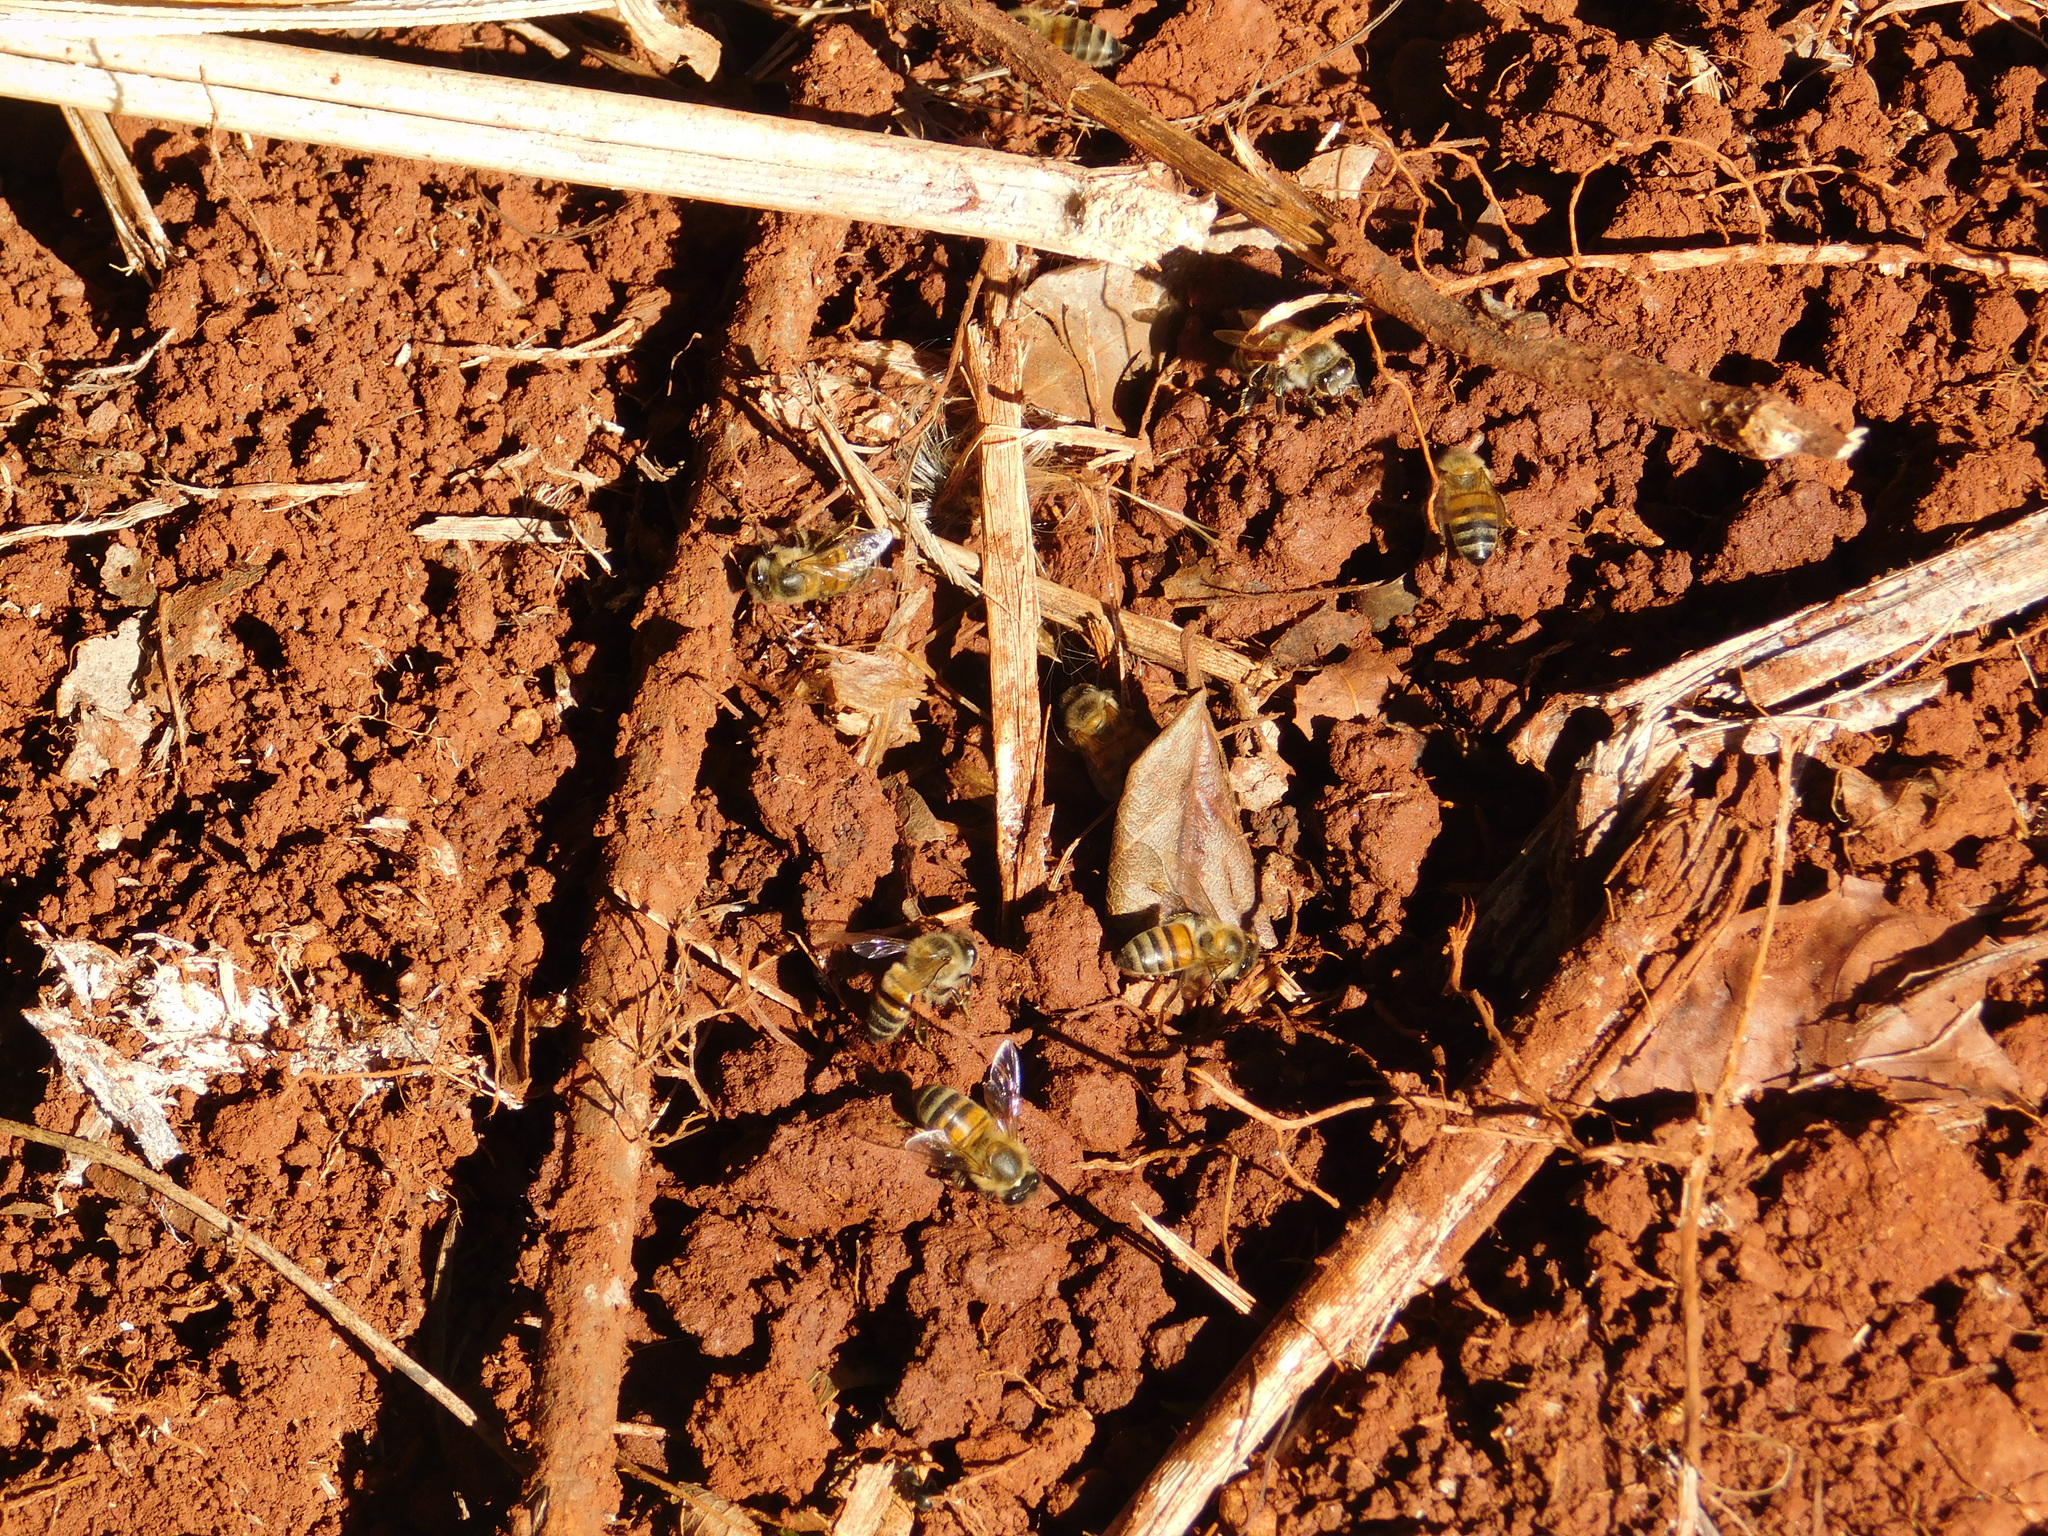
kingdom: Animalia
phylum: Arthropoda
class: Insecta
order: Hymenoptera
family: Apidae
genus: Apis
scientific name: Apis mellifera
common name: Honey bee
